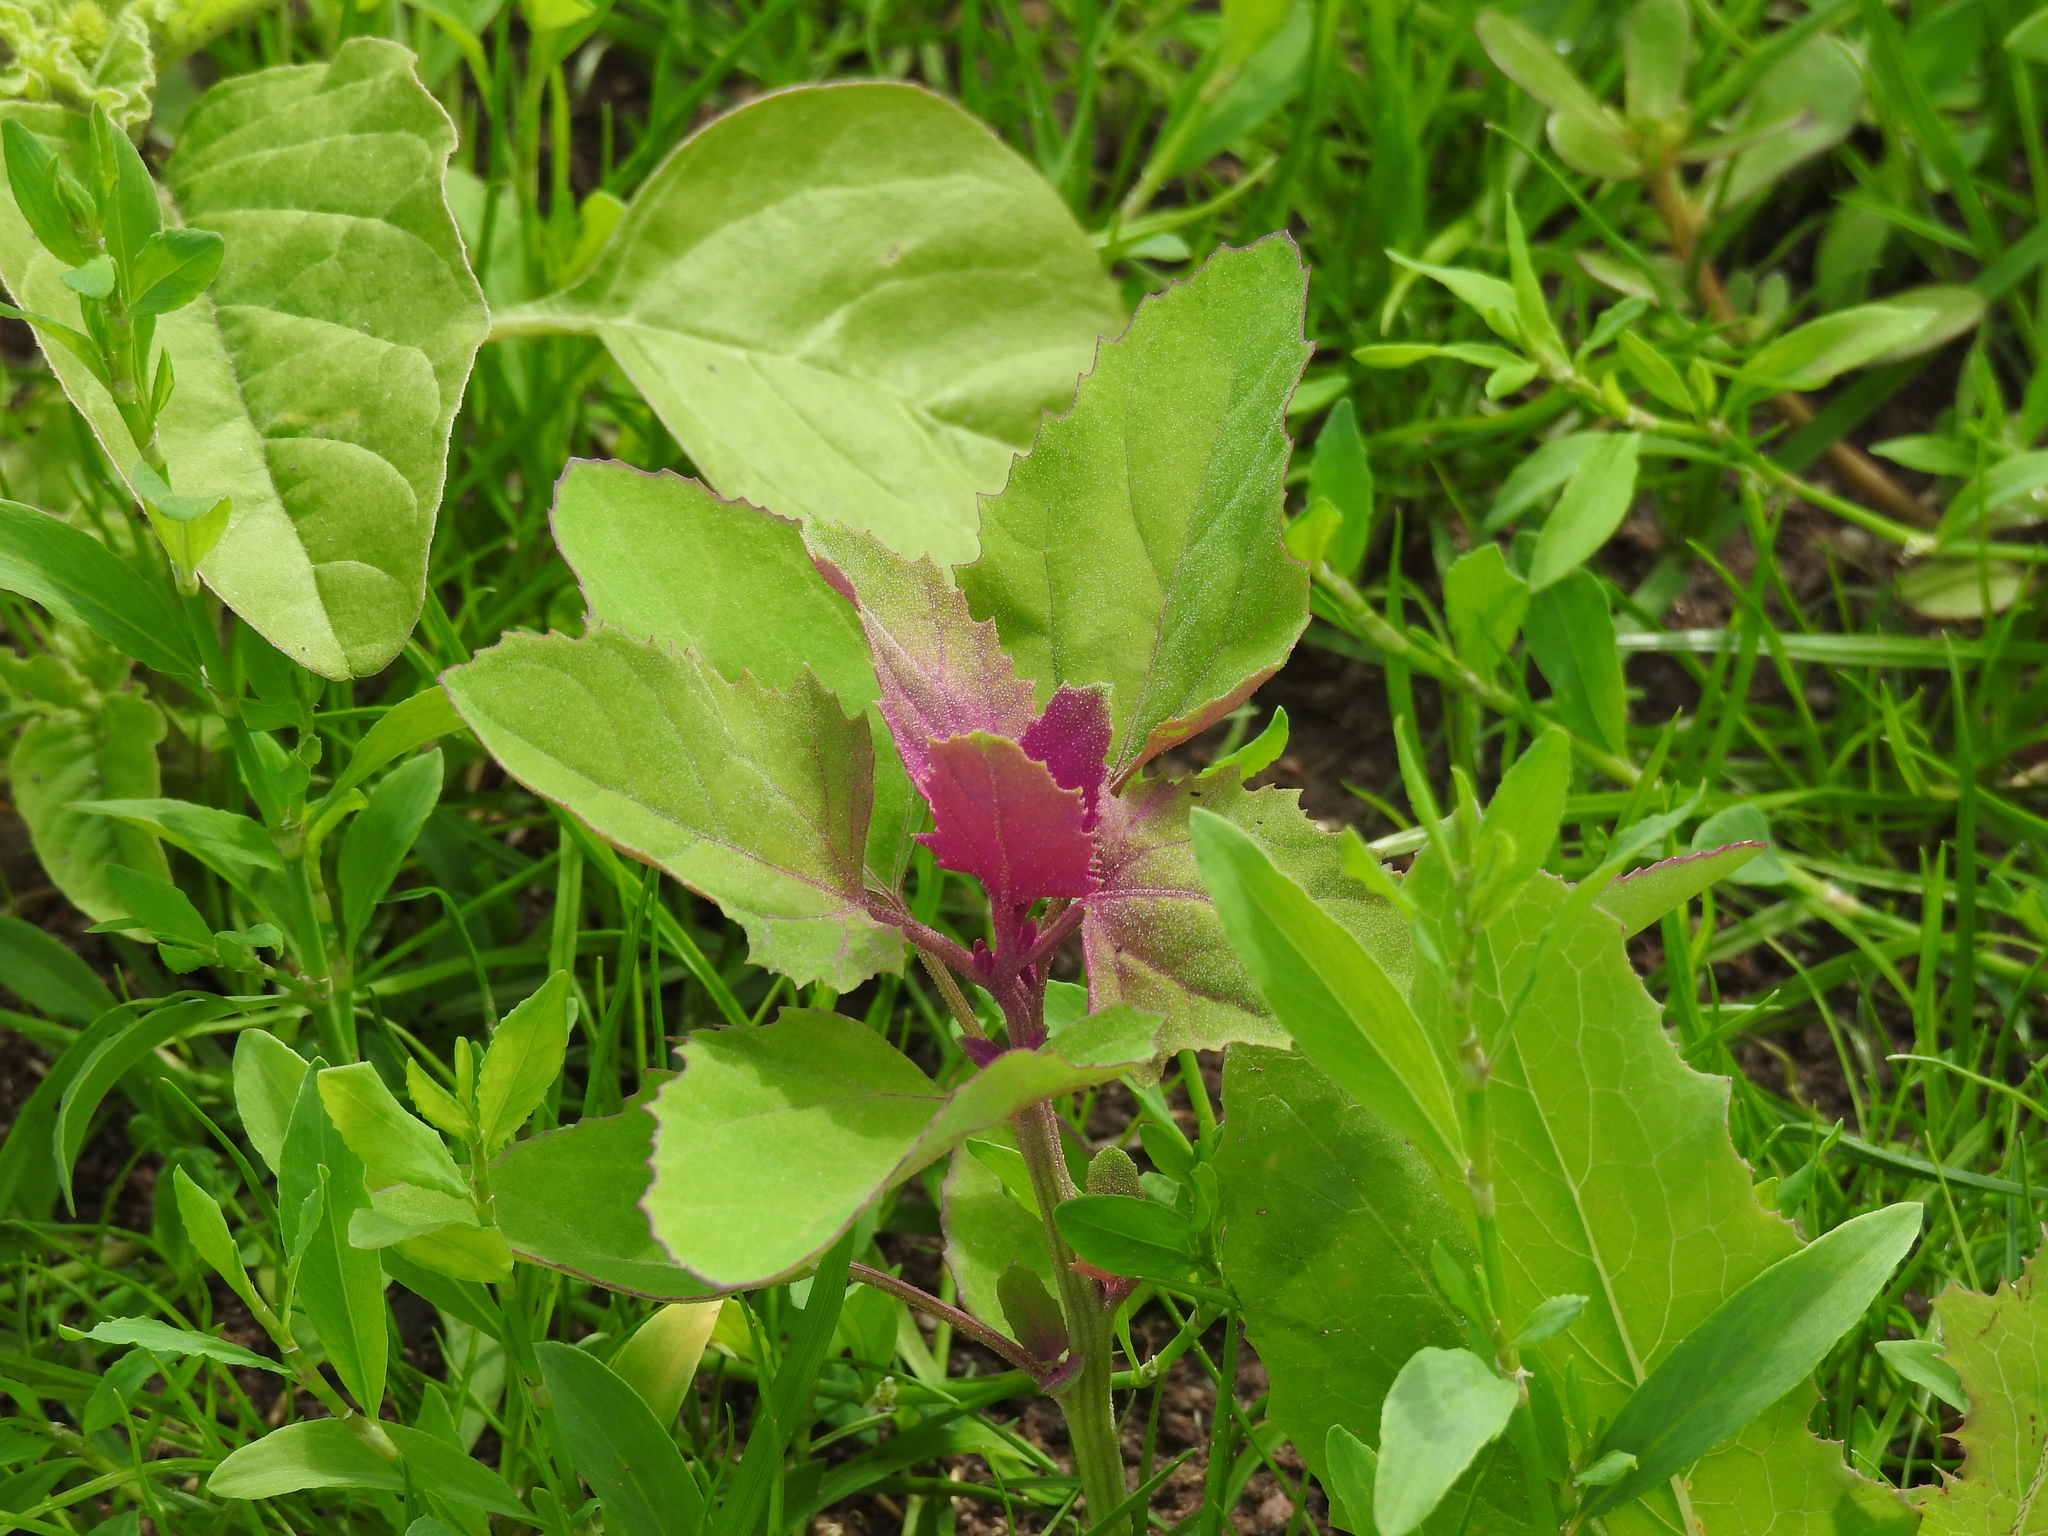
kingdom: Plantae
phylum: Tracheophyta
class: Magnoliopsida
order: Caryophyllales
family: Amaranthaceae
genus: Chenopodium
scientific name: Chenopodium giganteum
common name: Magentaspreen
